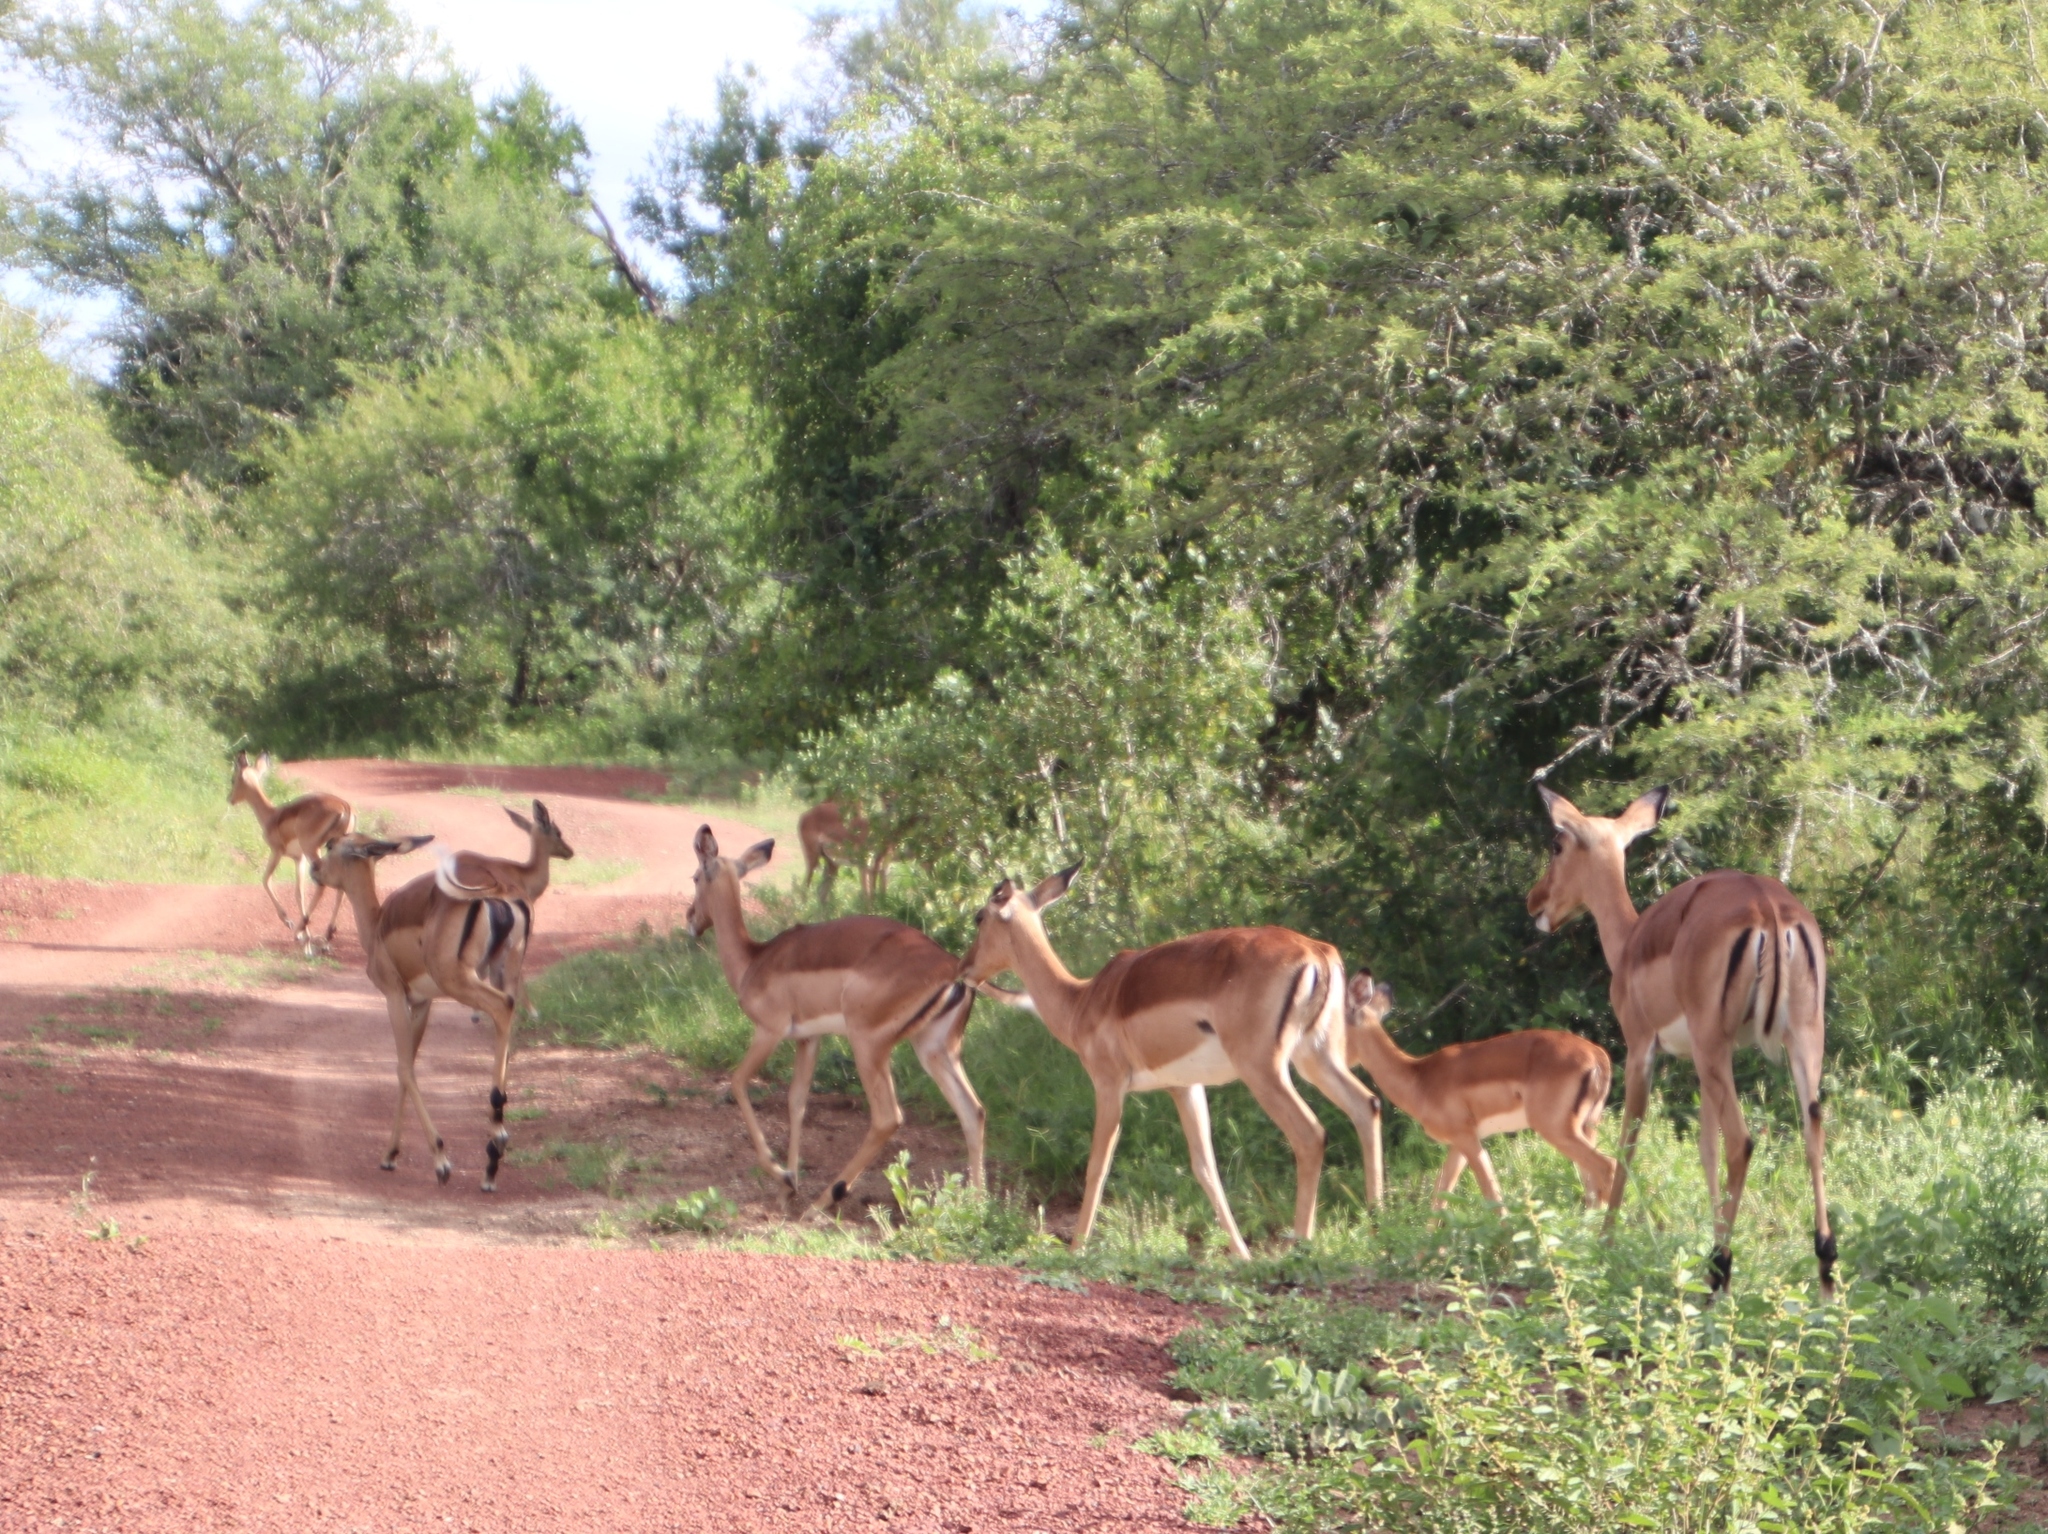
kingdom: Animalia
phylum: Chordata
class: Mammalia
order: Artiodactyla
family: Bovidae
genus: Aepyceros
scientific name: Aepyceros melampus
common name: Impala
